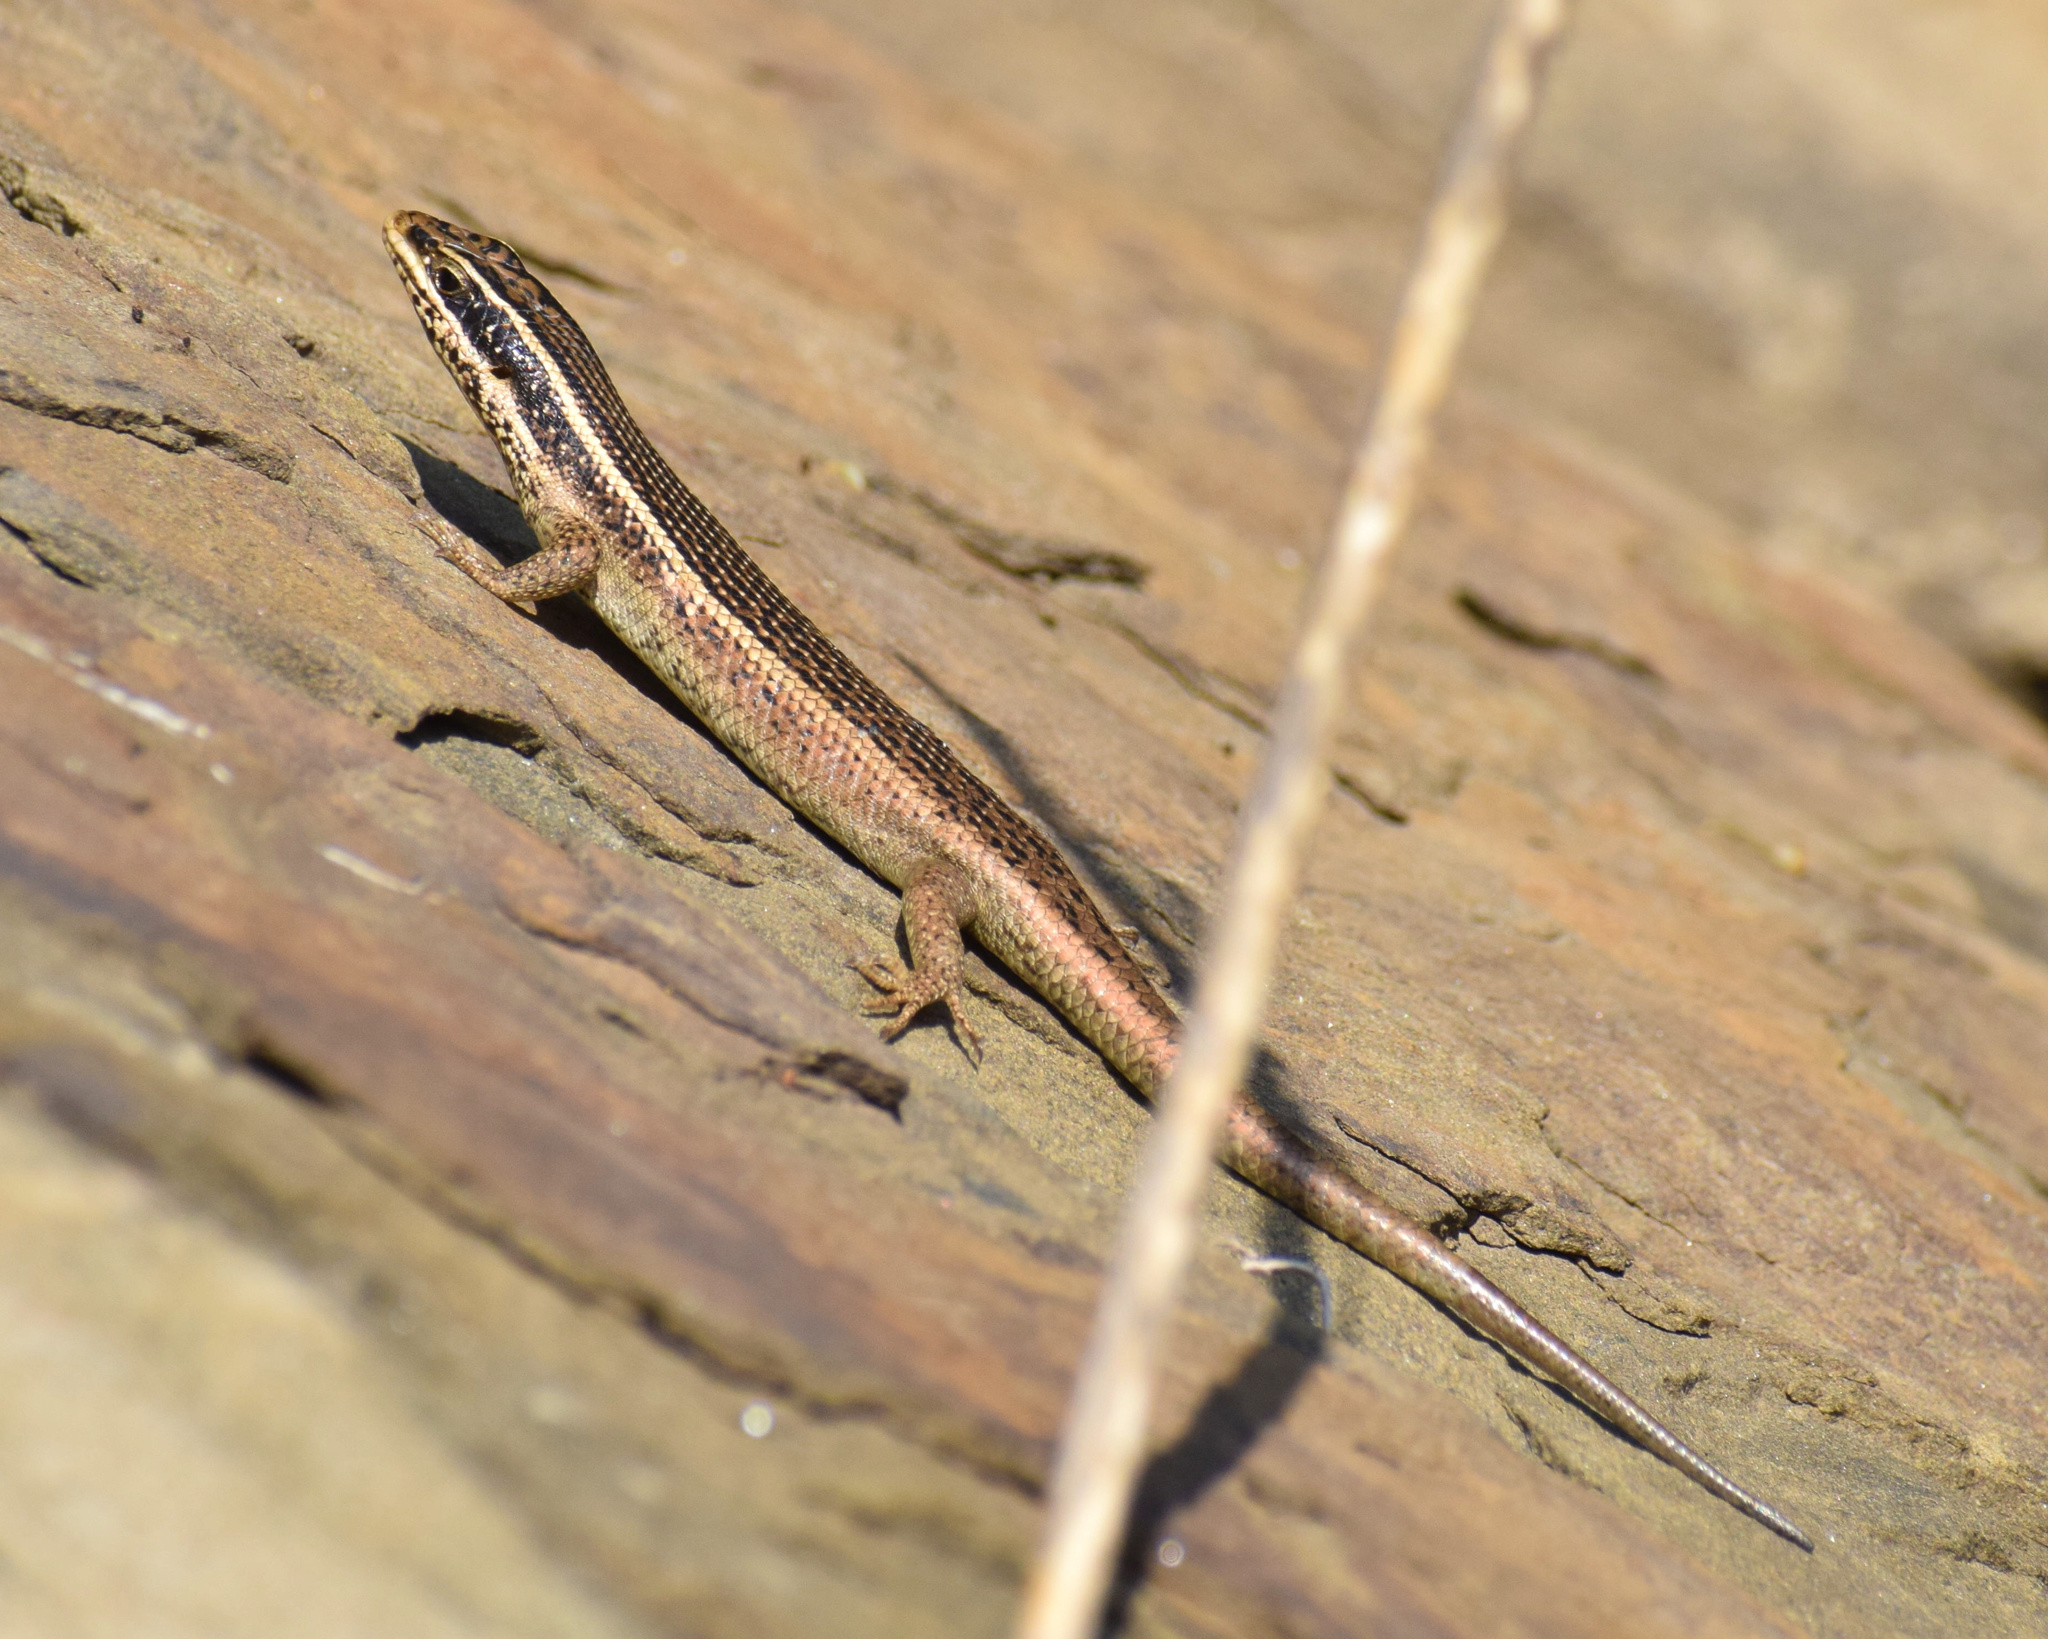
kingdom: Animalia
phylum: Chordata
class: Squamata
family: Scincidae
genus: Trachylepis
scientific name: Trachylepis punctatissima
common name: Montane speckled skink
